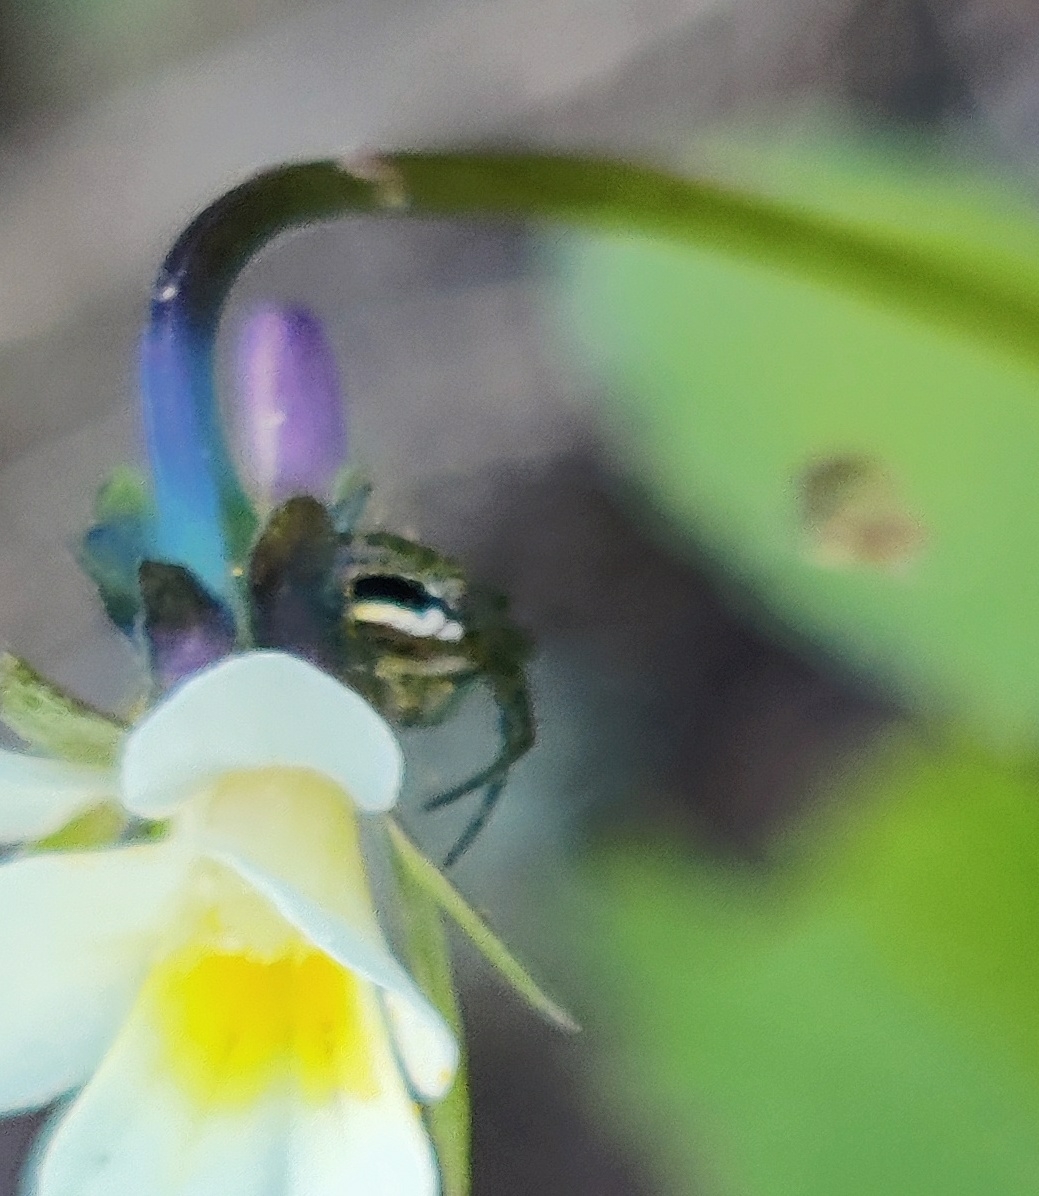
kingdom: Animalia
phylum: Arthropoda
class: Arachnida
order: Araneae
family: Araneidae
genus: Mangora
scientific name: Mangora acalypha
